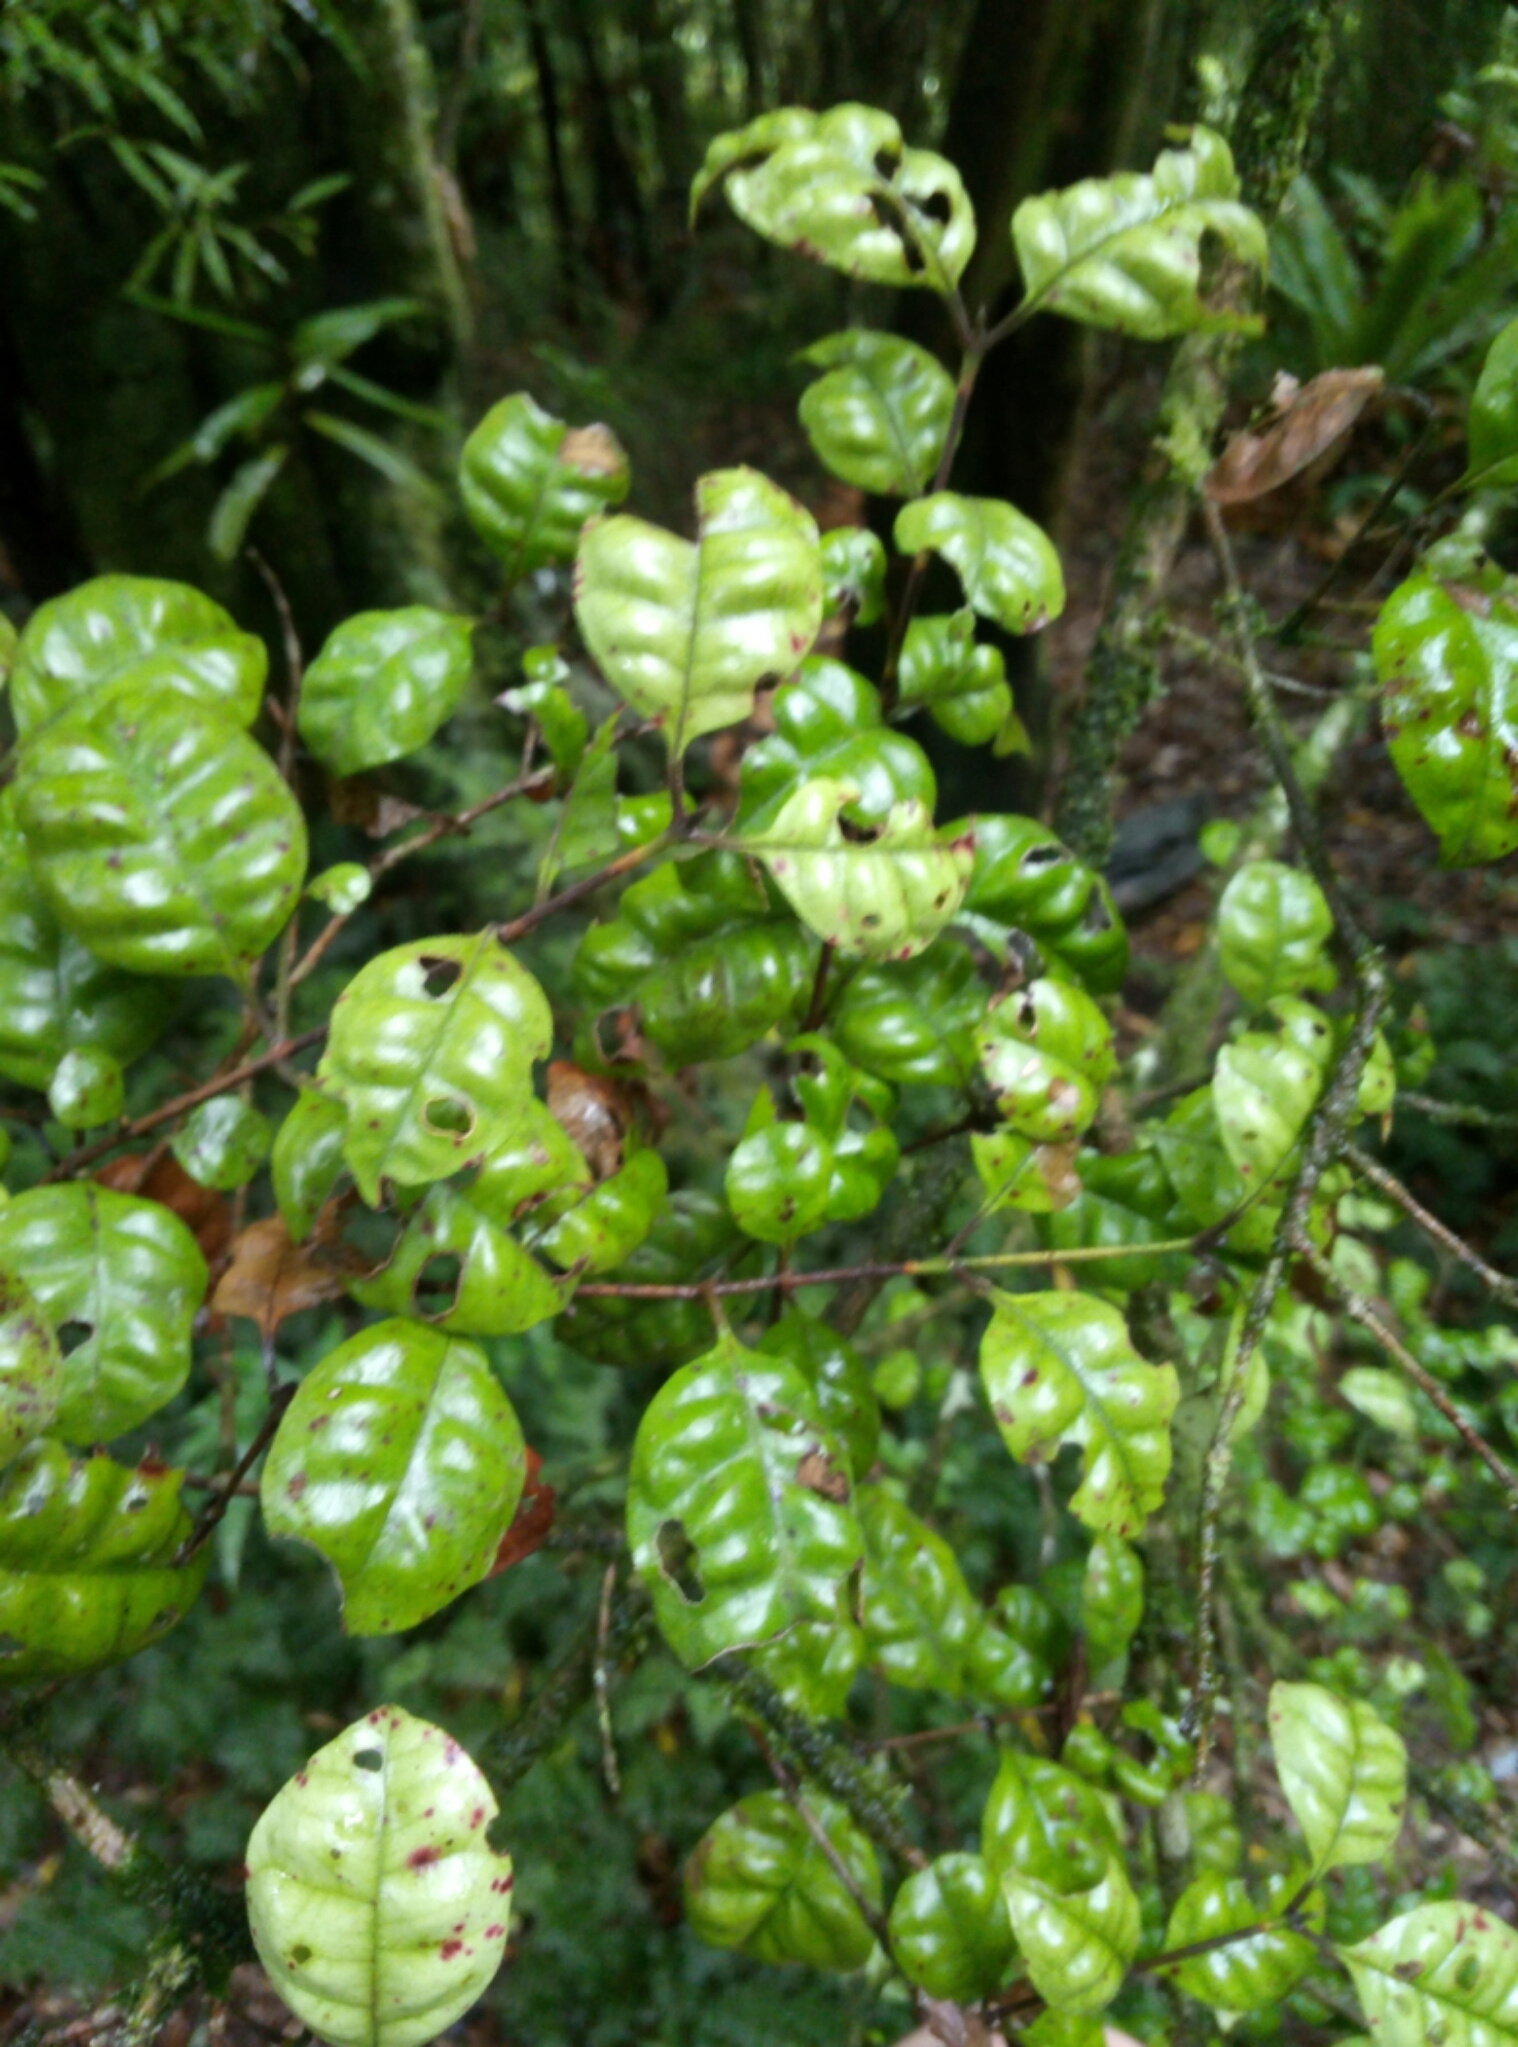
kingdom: Plantae
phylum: Tracheophyta
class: Magnoliopsida
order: Myrtales
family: Myrtaceae
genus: Lophomyrtus
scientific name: Lophomyrtus bullata
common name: Rama rama
